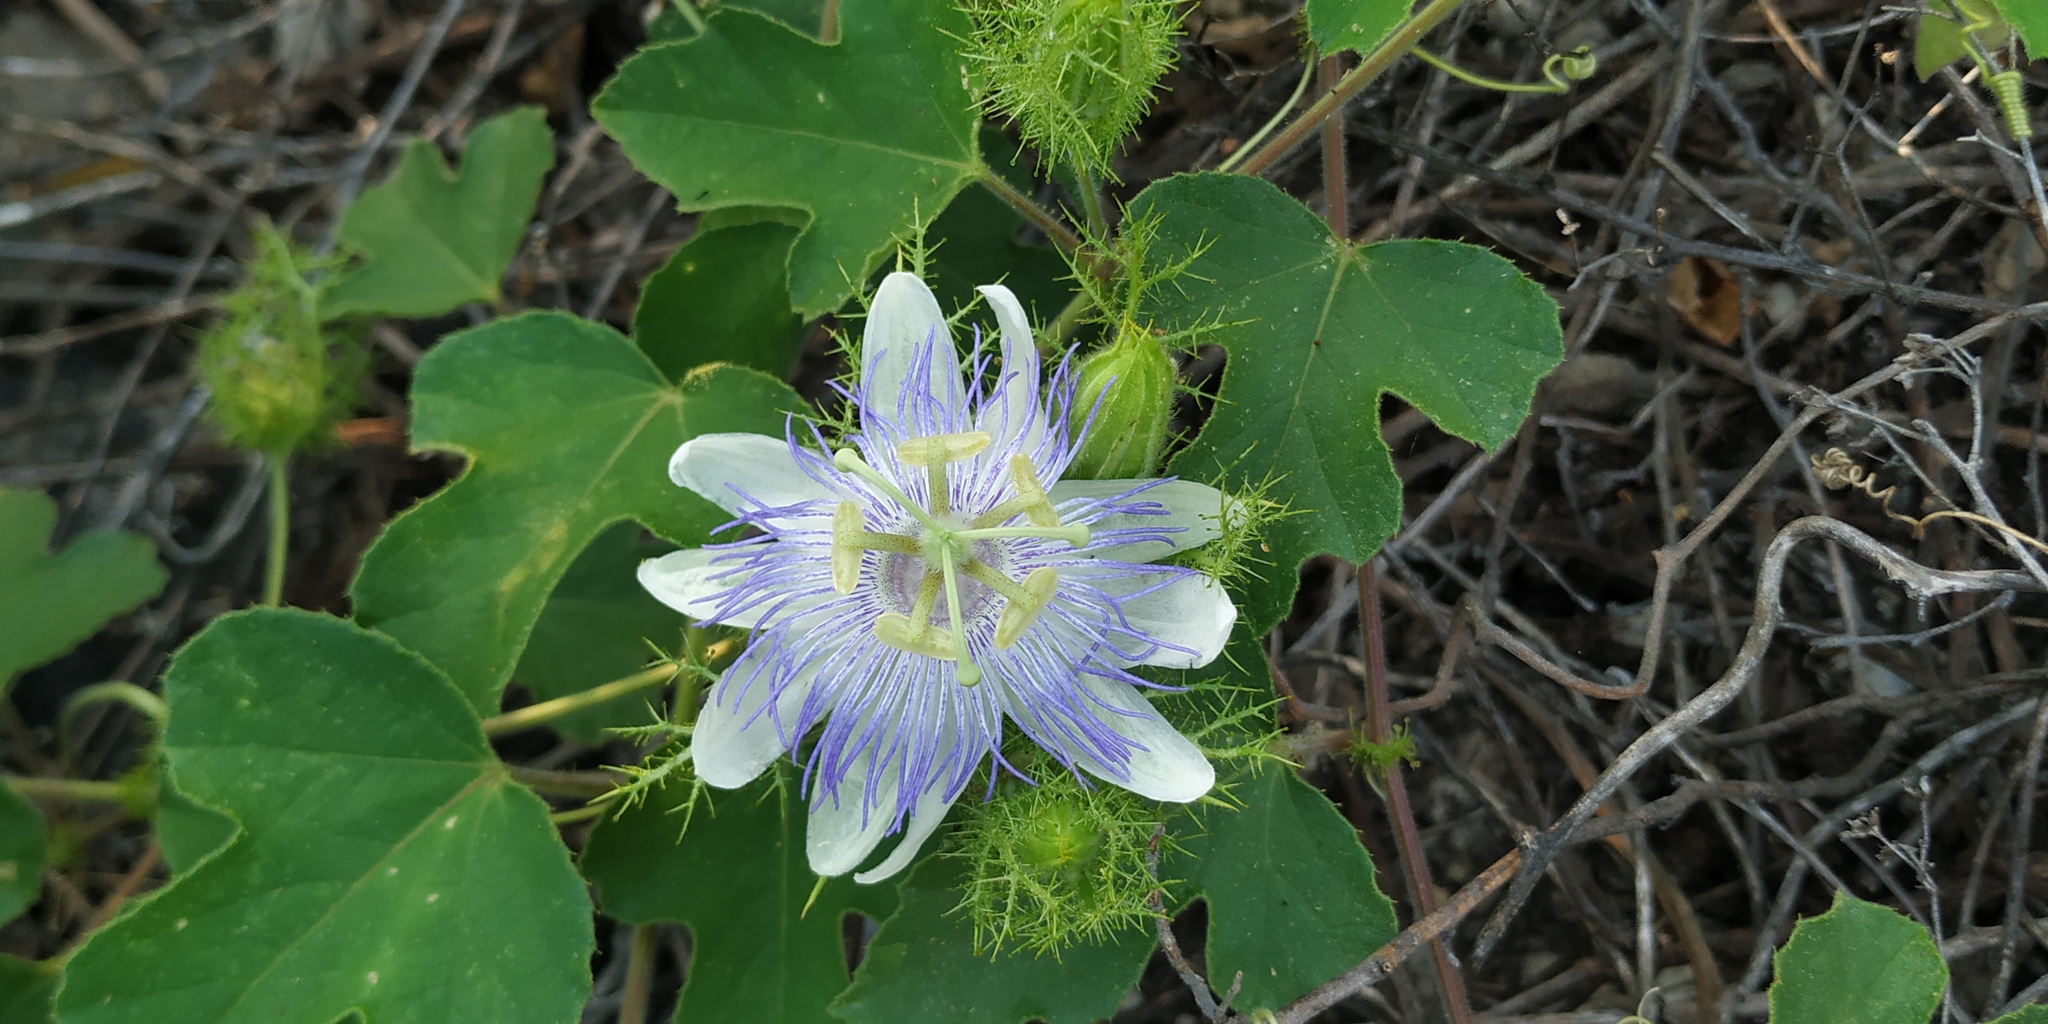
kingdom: Plantae
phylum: Tracheophyta
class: Magnoliopsida
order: Malpighiales
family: Passifloraceae
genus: Passiflora
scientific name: Passiflora foetida
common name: Fetid passionflower
